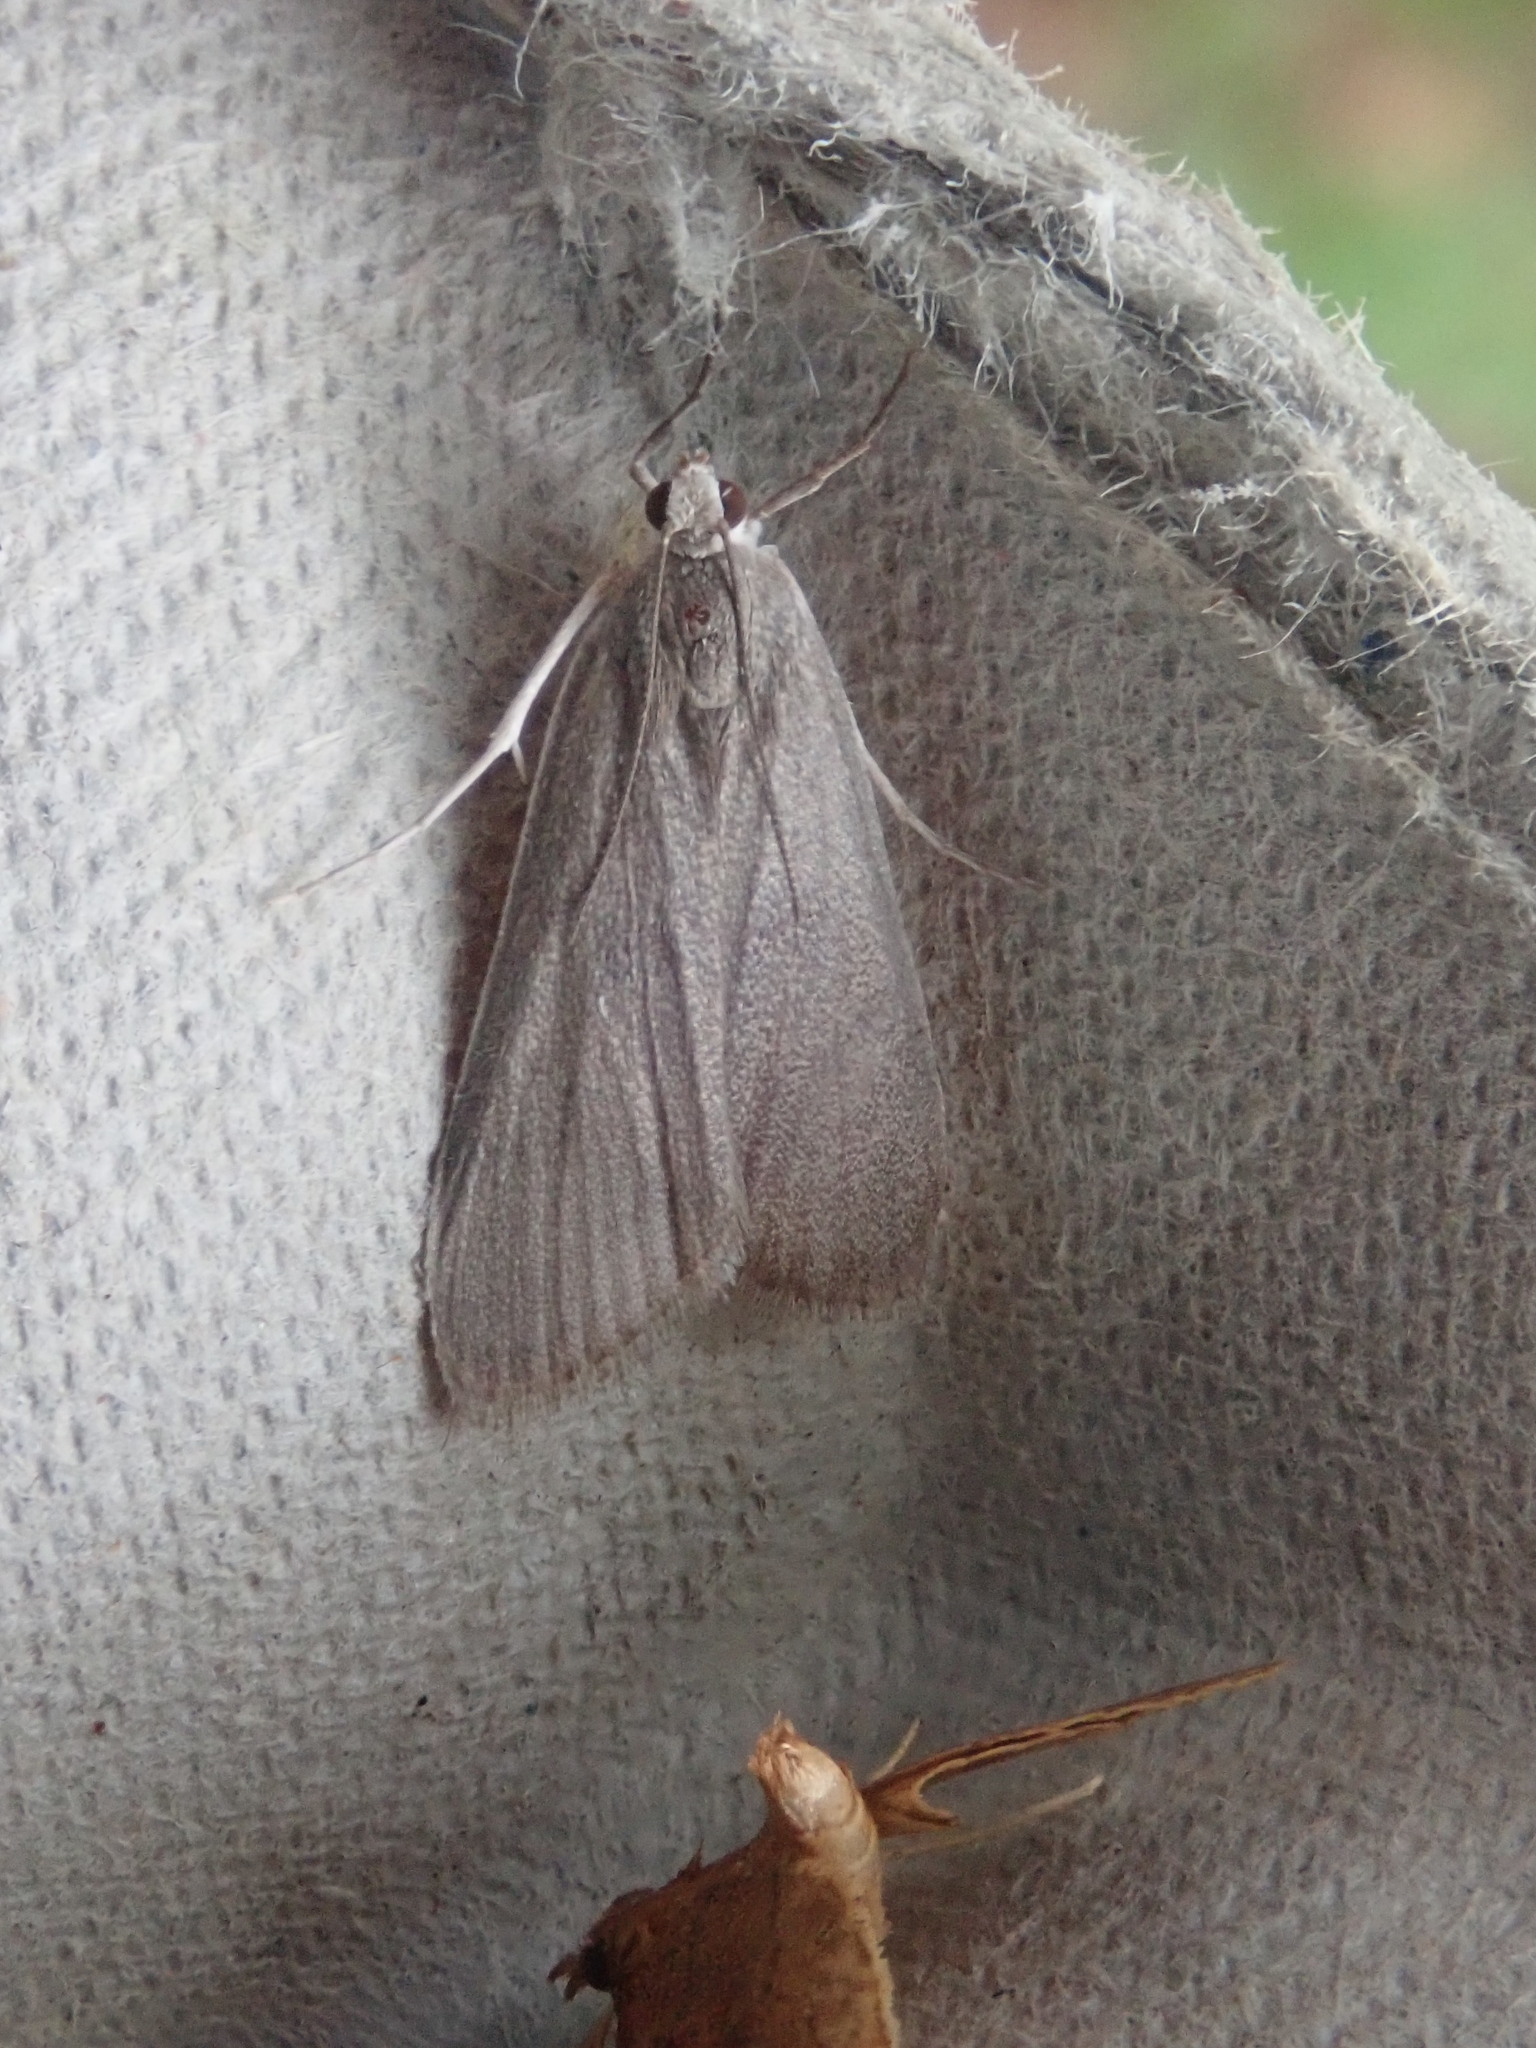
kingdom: Animalia
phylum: Arthropoda
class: Insecta
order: Lepidoptera
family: Crambidae
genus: Parapoynx
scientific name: Parapoynx maculalis
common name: Polymorphic pondweed moth
